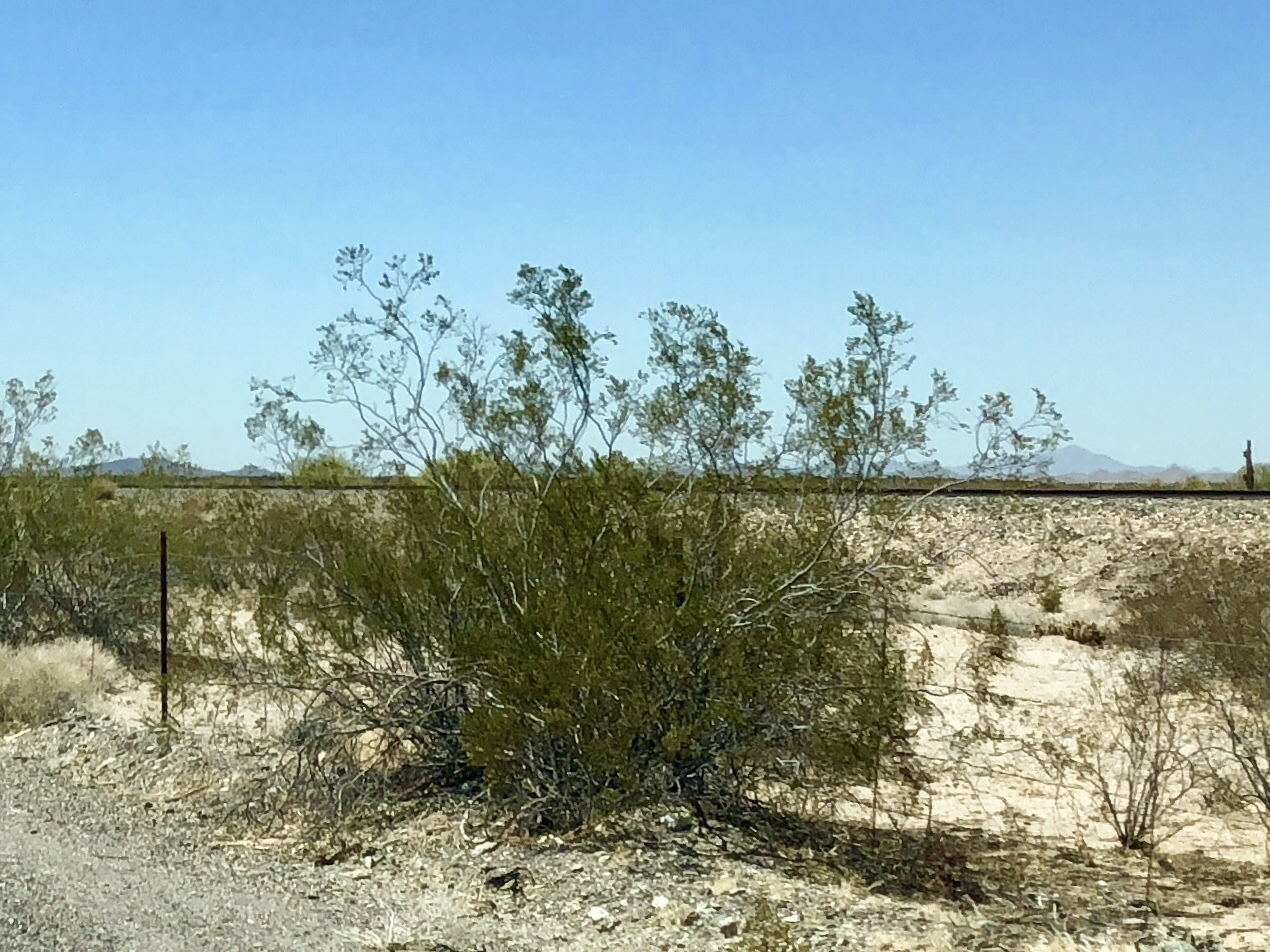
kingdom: Plantae
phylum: Tracheophyta
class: Magnoliopsida
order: Zygophyllales
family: Zygophyllaceae
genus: Larrea
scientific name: Larrea tridentata
